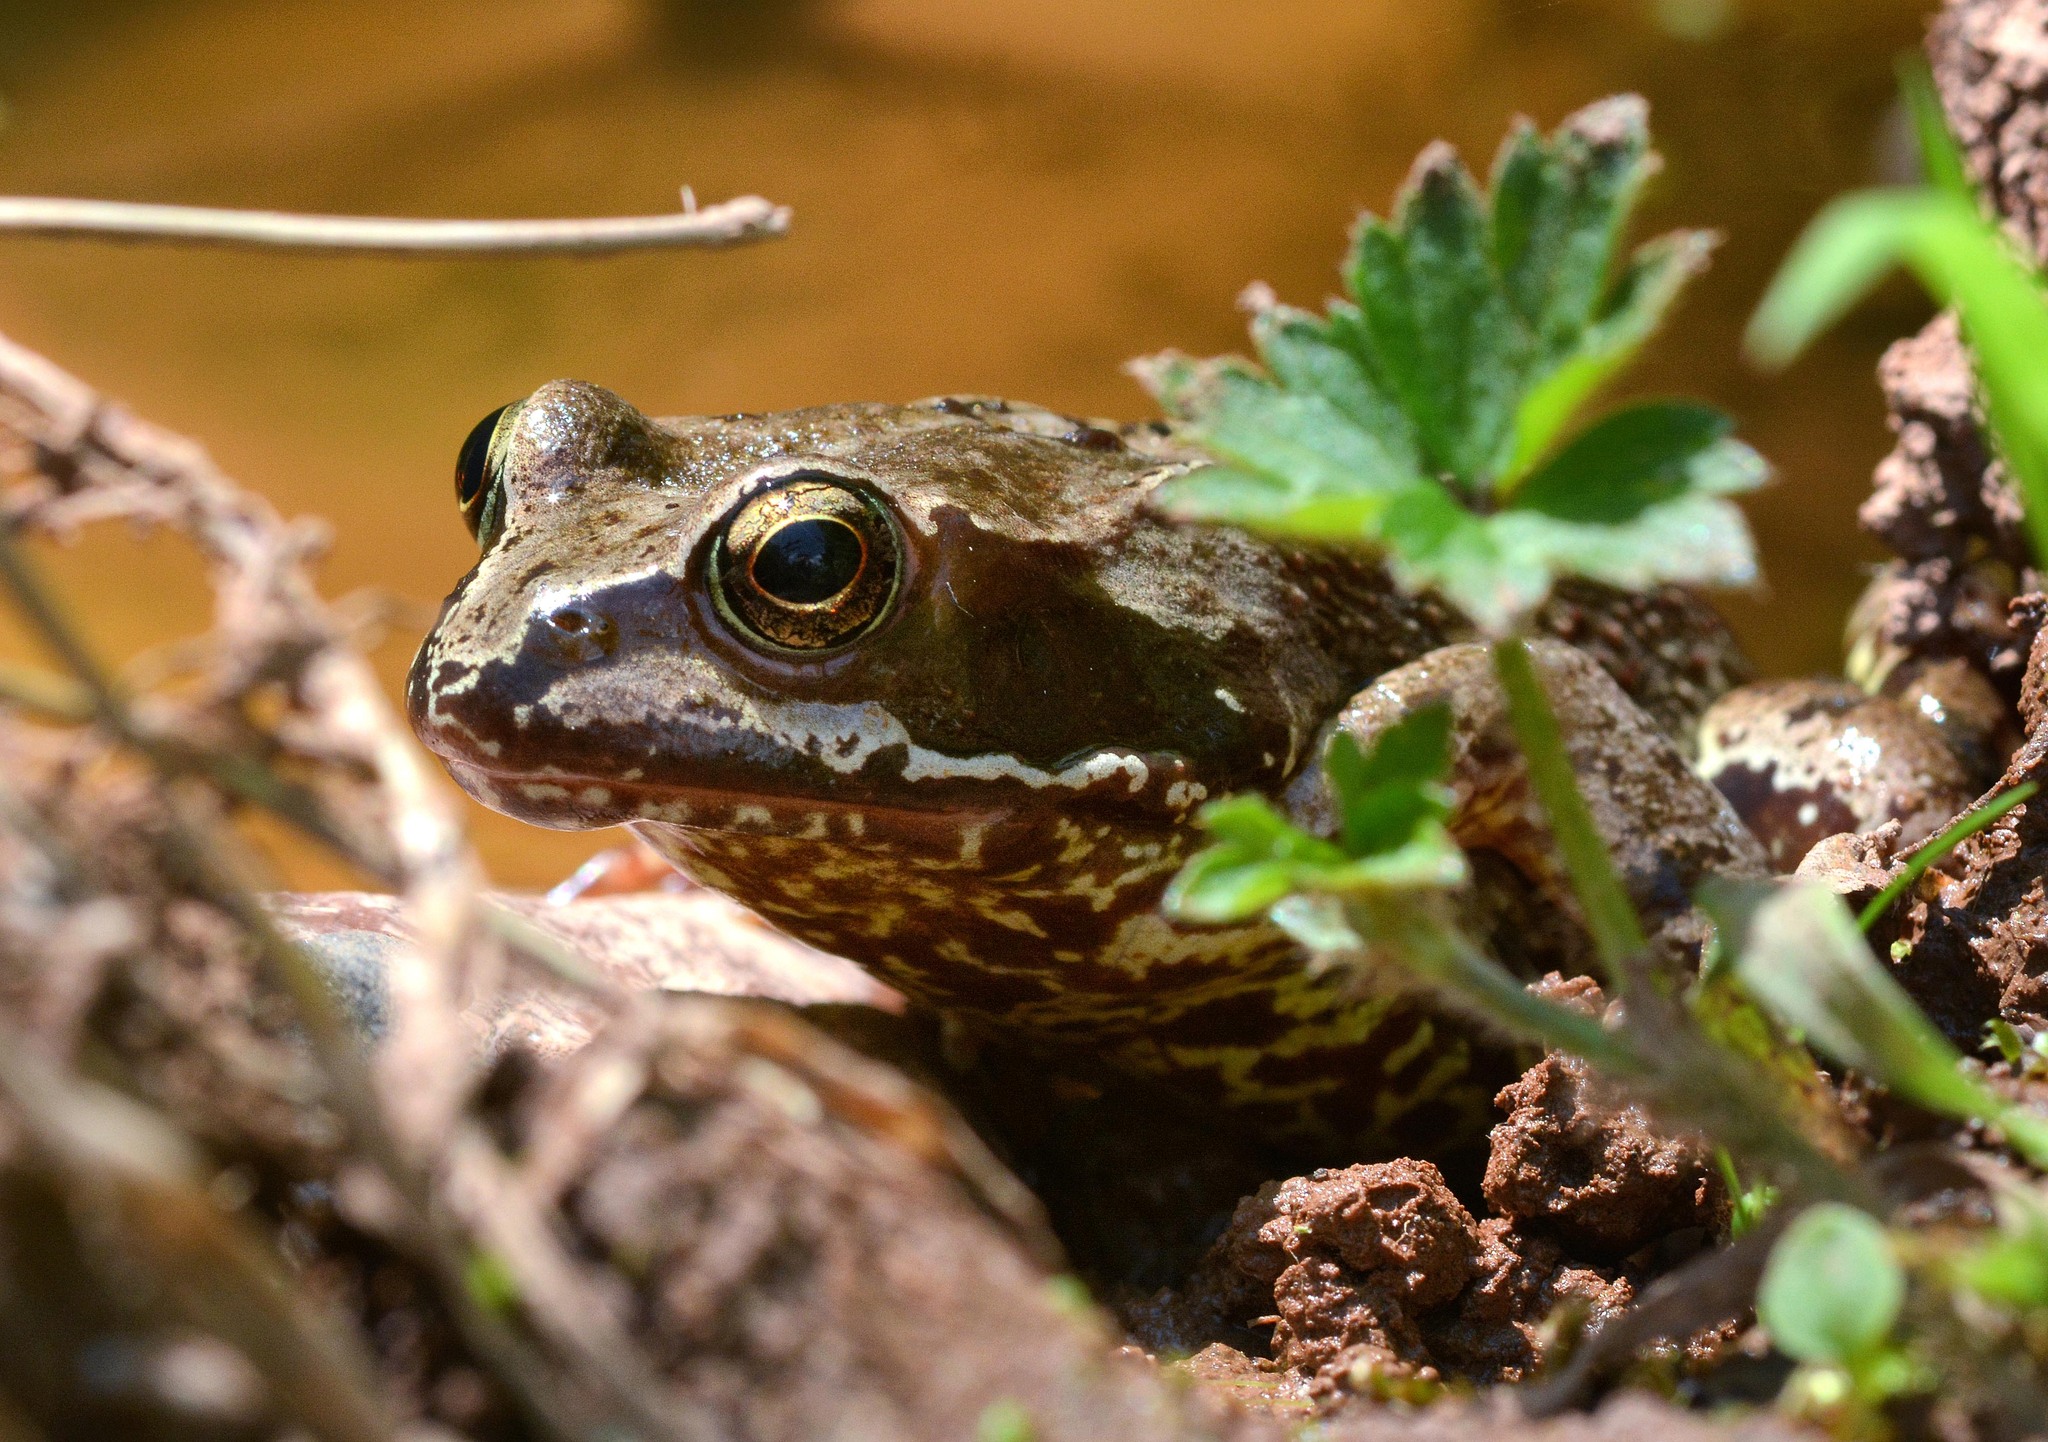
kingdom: Animalia
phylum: Chordata
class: Amphibia
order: Anura
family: Ranidae
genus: Rana
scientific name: Rana temporaria
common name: Common frog
